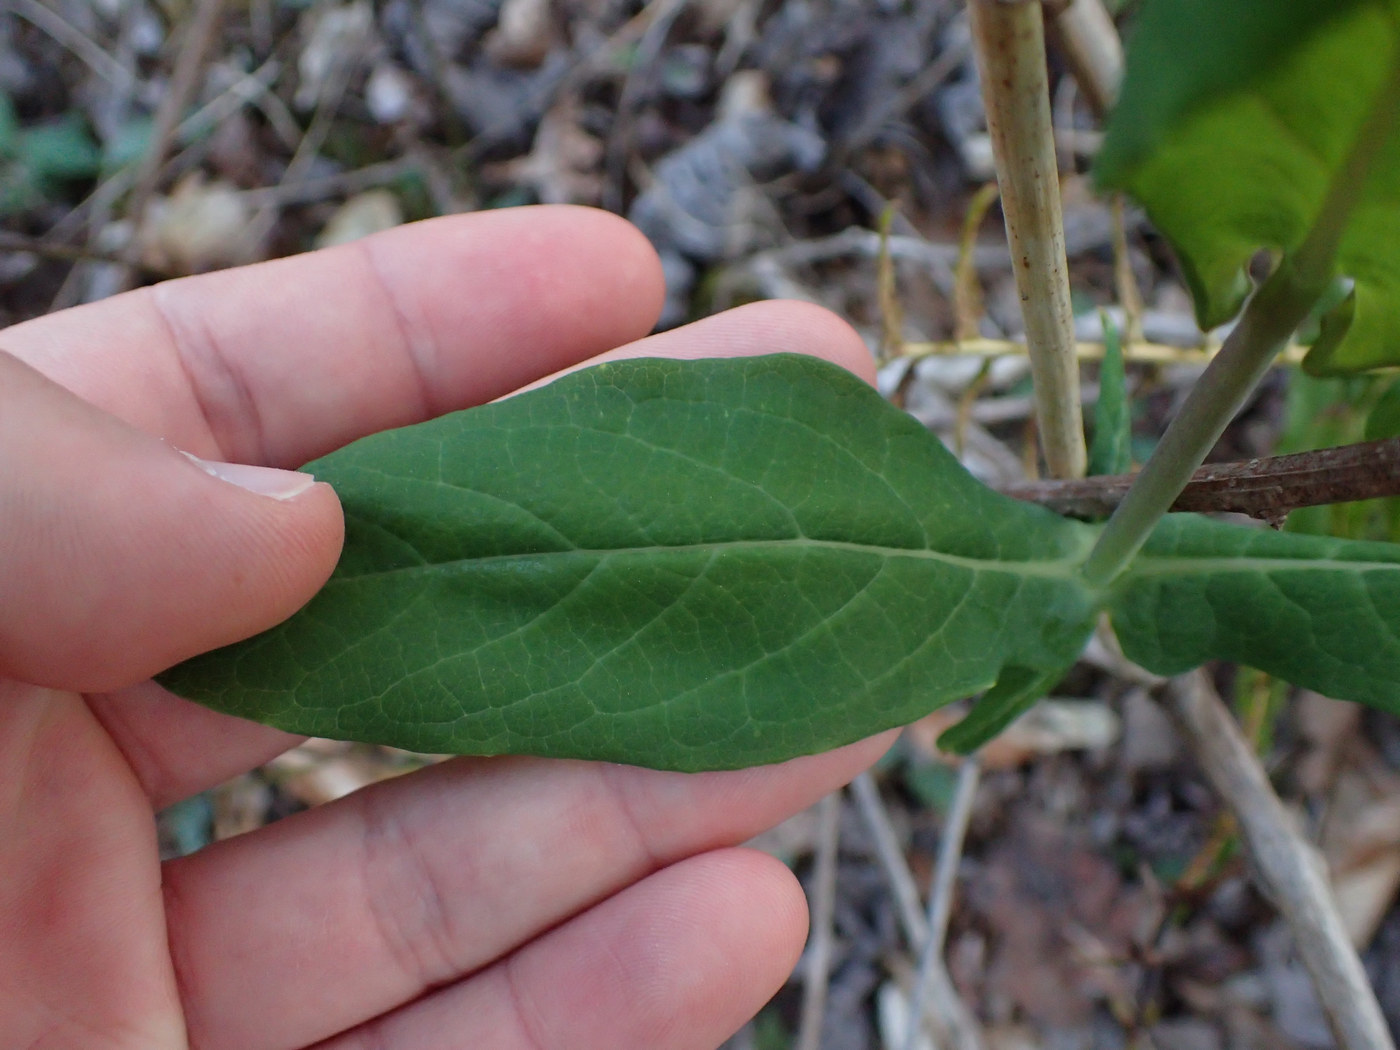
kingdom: Plantae
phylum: Tracheophyta
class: Magnoliopsida
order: Dipsacales
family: Caprifoliaceae
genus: Lonicera
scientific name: Lonicera dioica
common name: Limber honeysuckle
